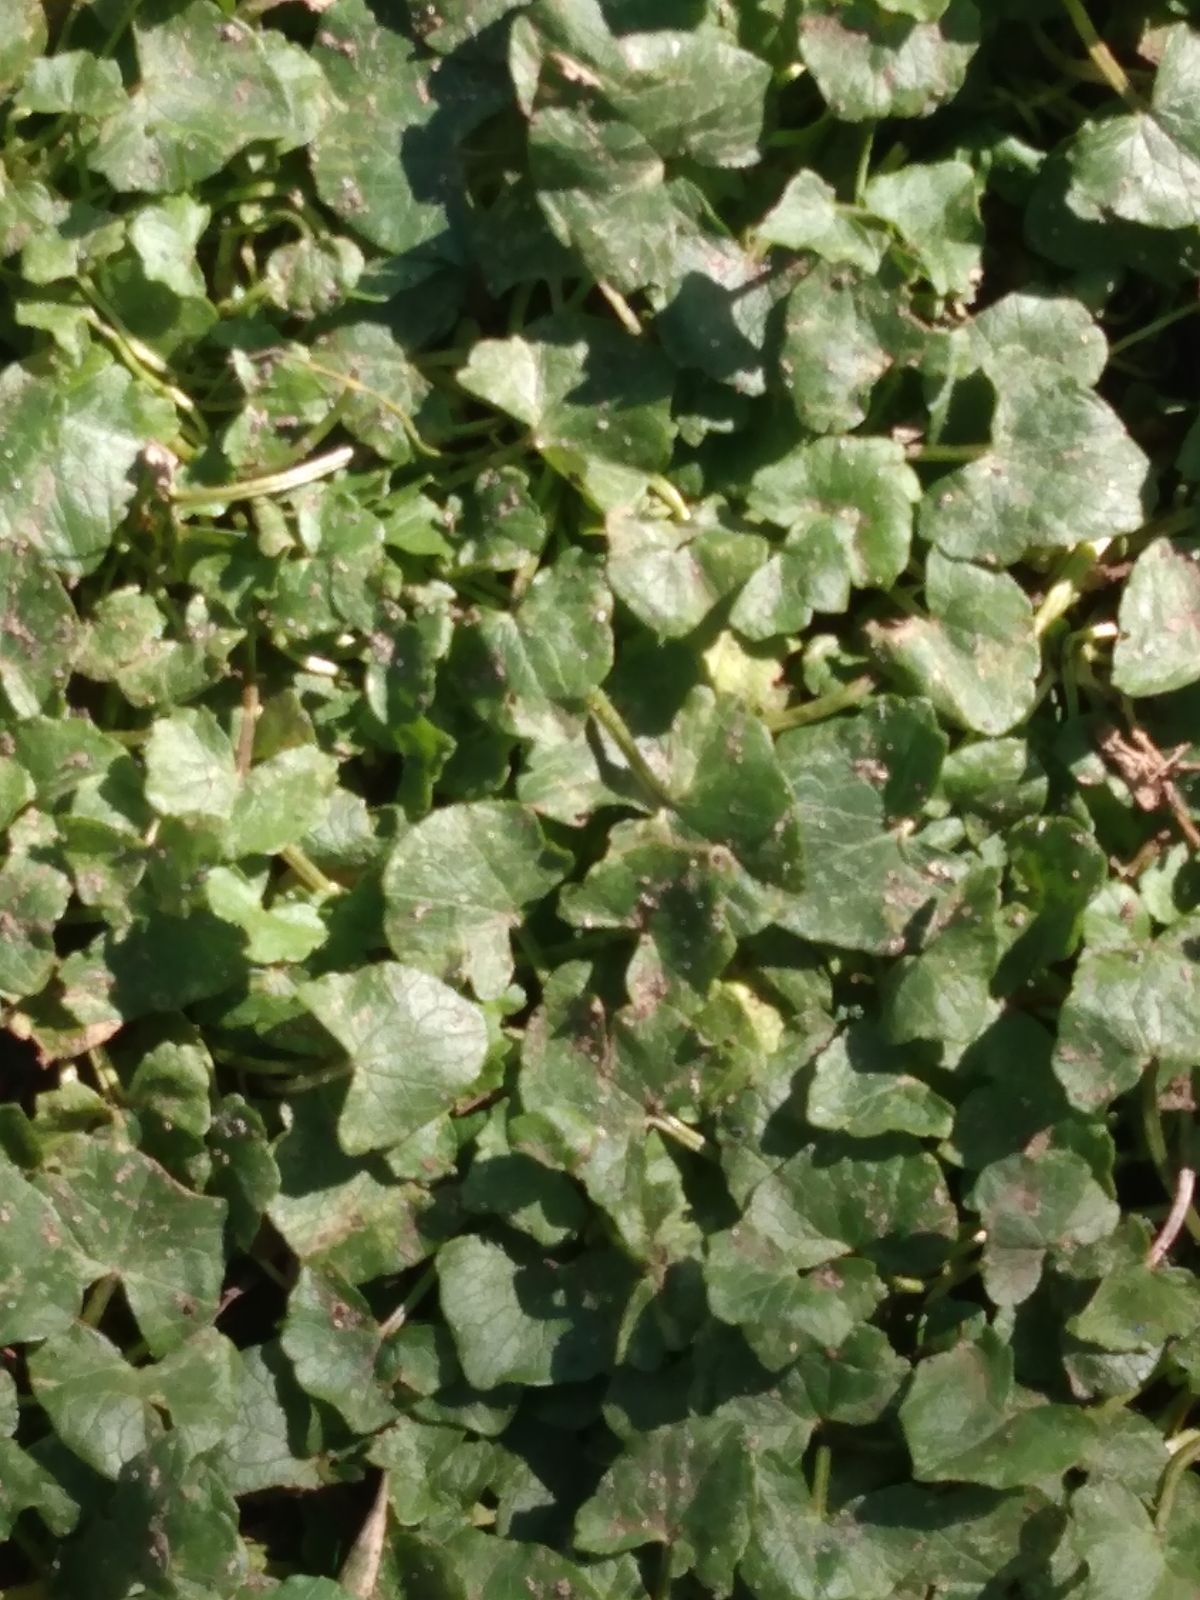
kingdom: Plantae
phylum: Tracheophyta
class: Magnoliopsida
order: Ranunculales
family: Ranunculaceae
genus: Ficaria
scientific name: Ficaria verna
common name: Lesser celandine
